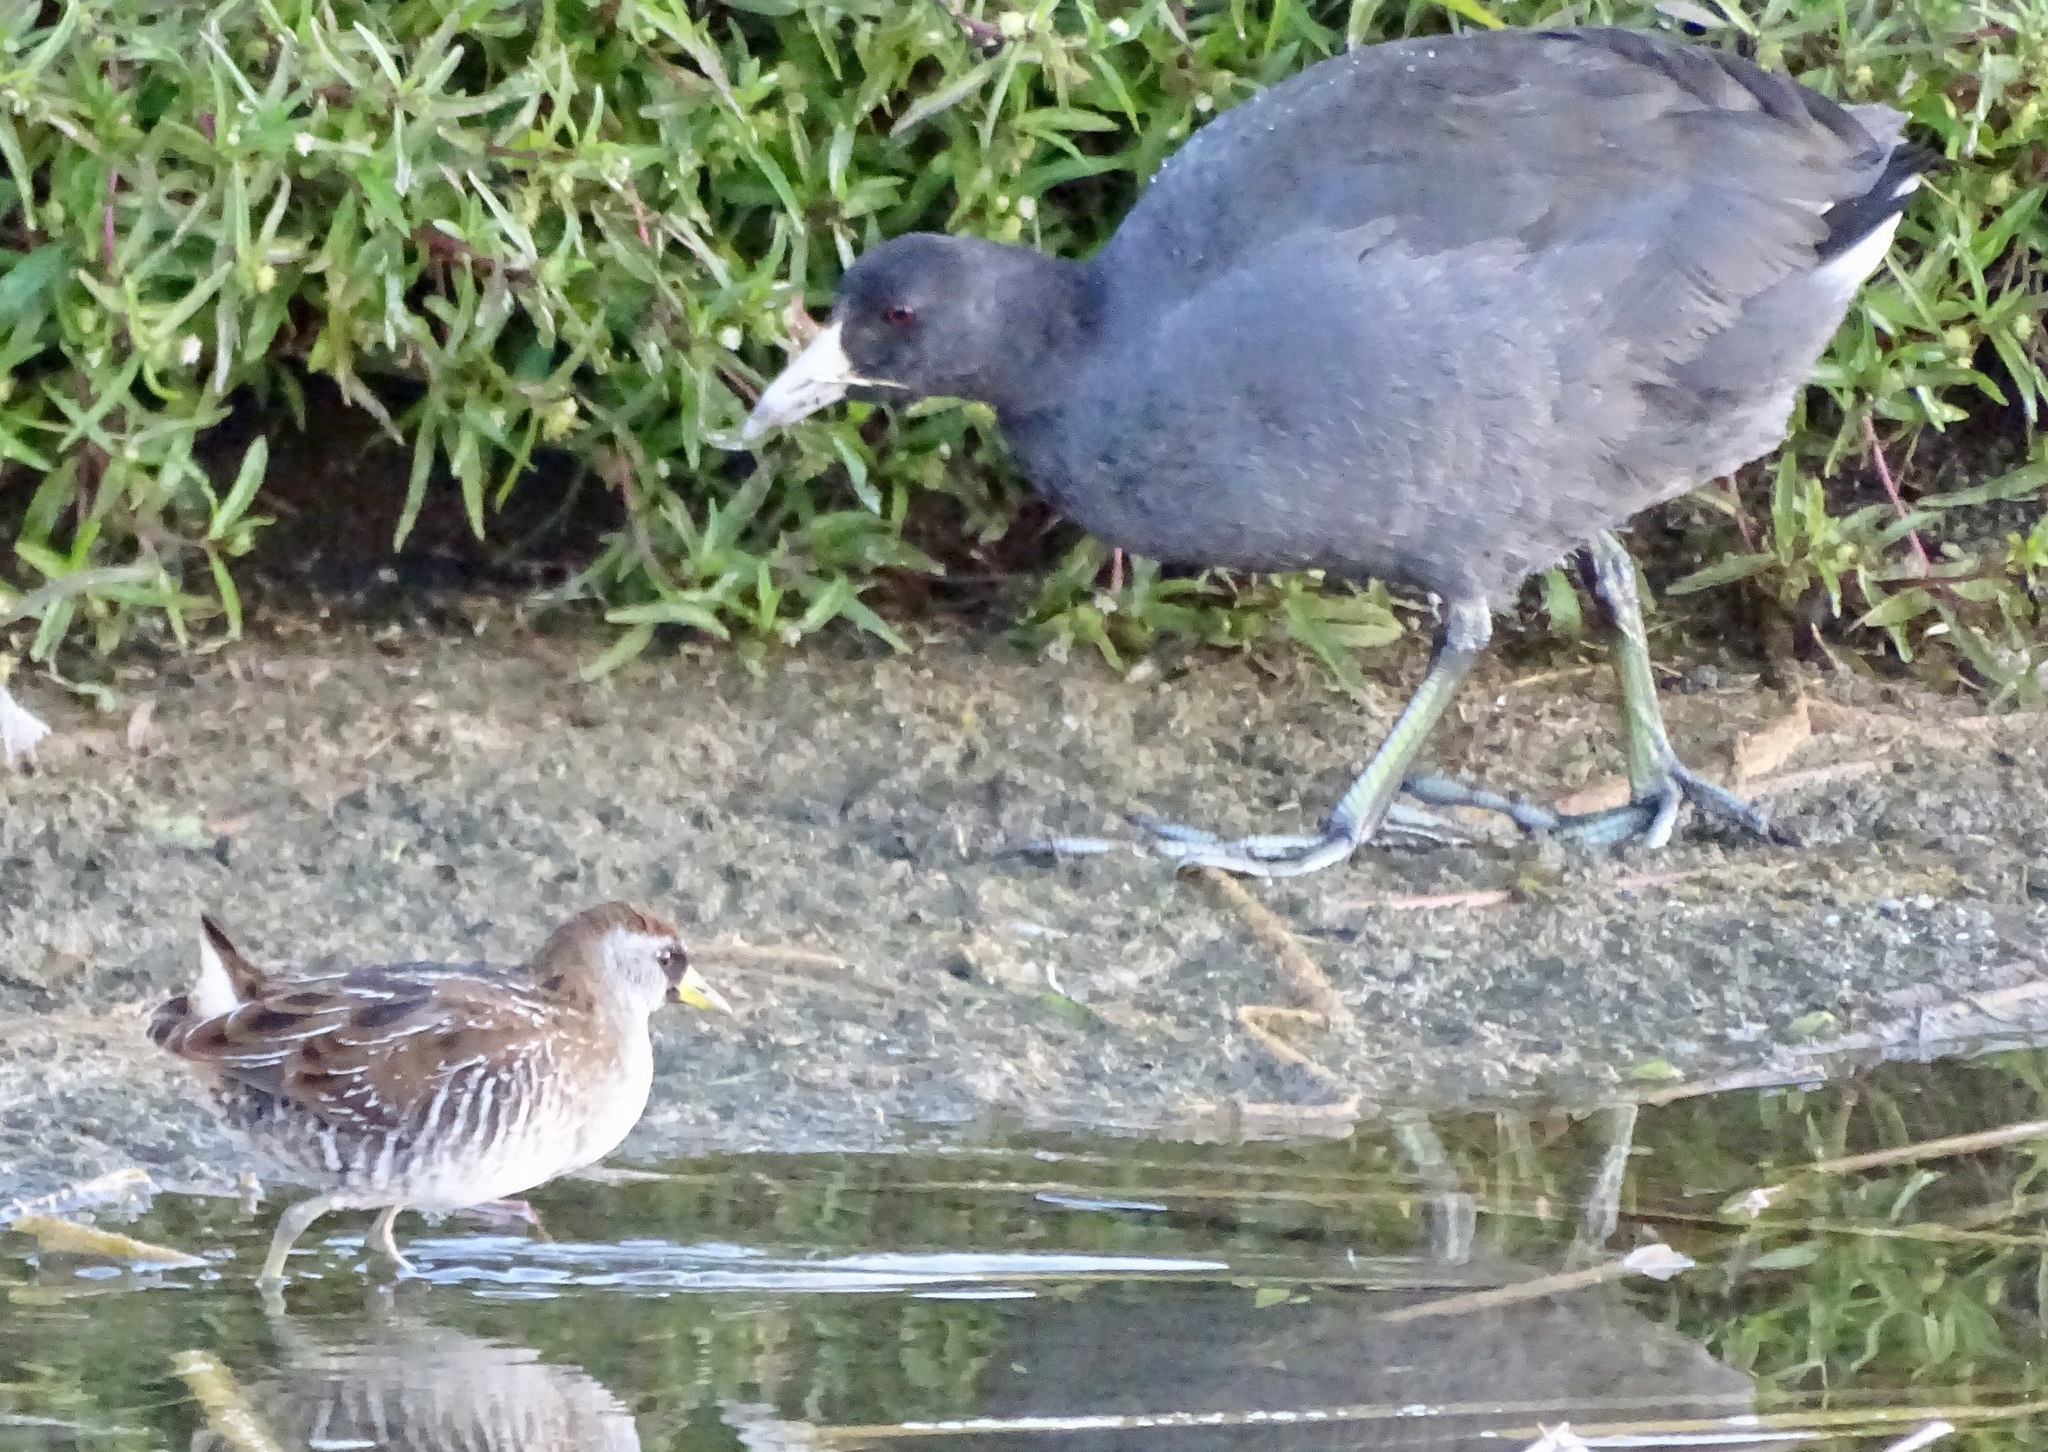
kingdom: Animalia
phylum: Chordata
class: Aves
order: Gruiformes
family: Rallidae
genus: Porzana
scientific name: Porzana carolina
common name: Sora
